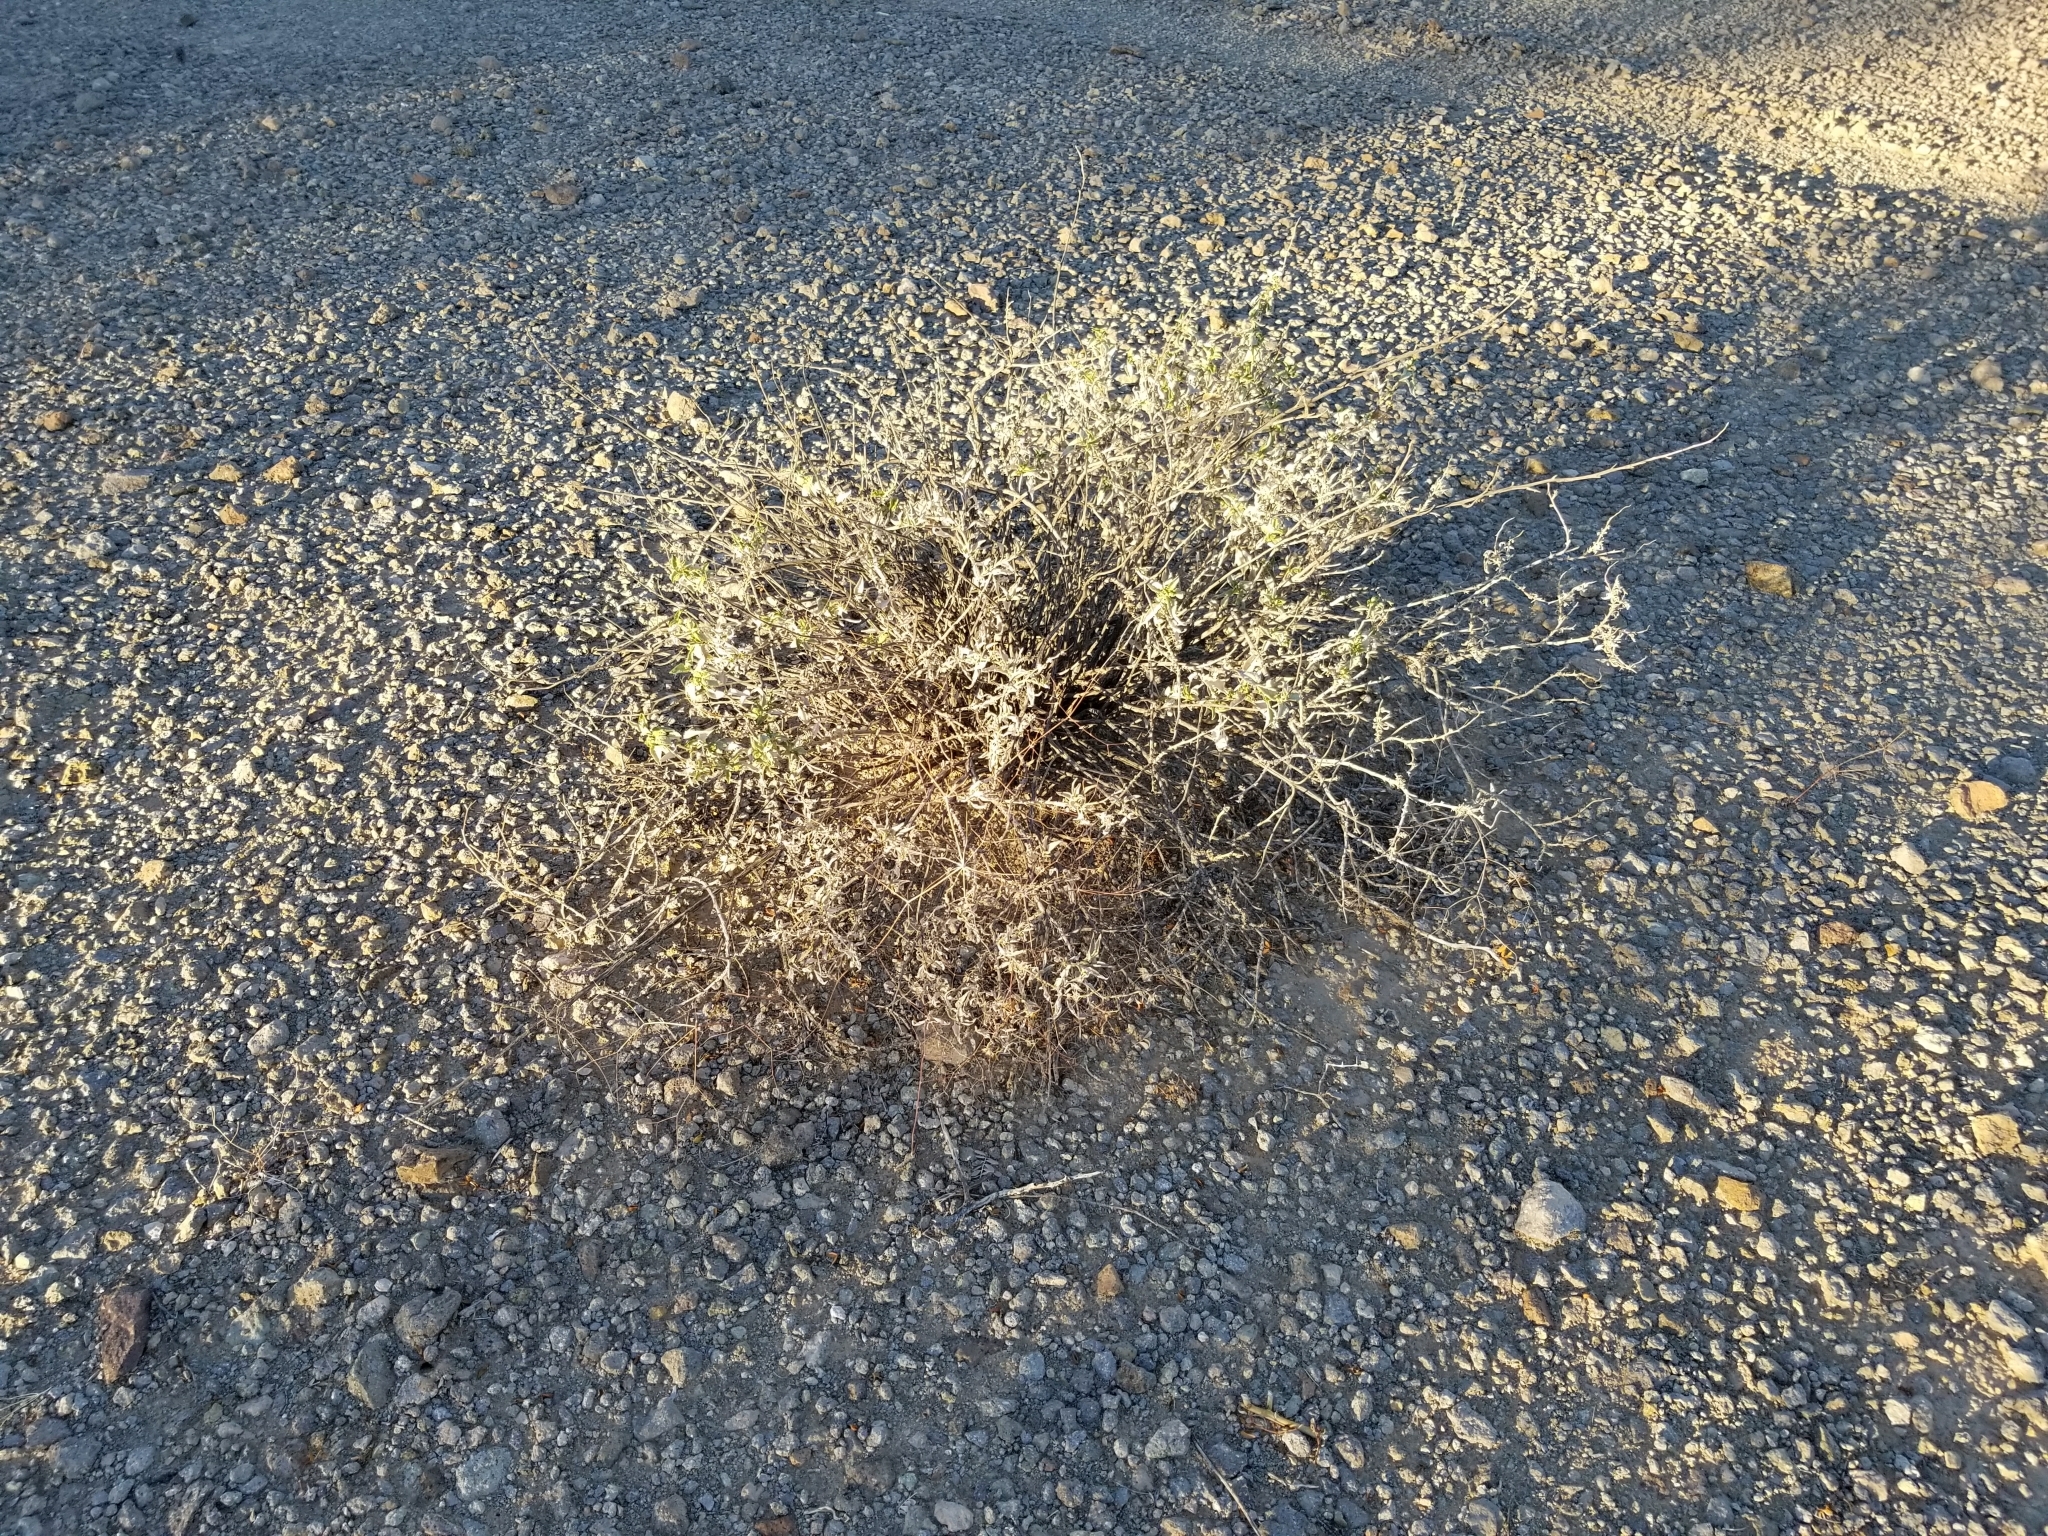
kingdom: Plantae
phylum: Tracheophyta
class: Magnoliopsida
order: Asterales
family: Asteraceae
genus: Ambrosia
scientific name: Ambrosia deltoidea
